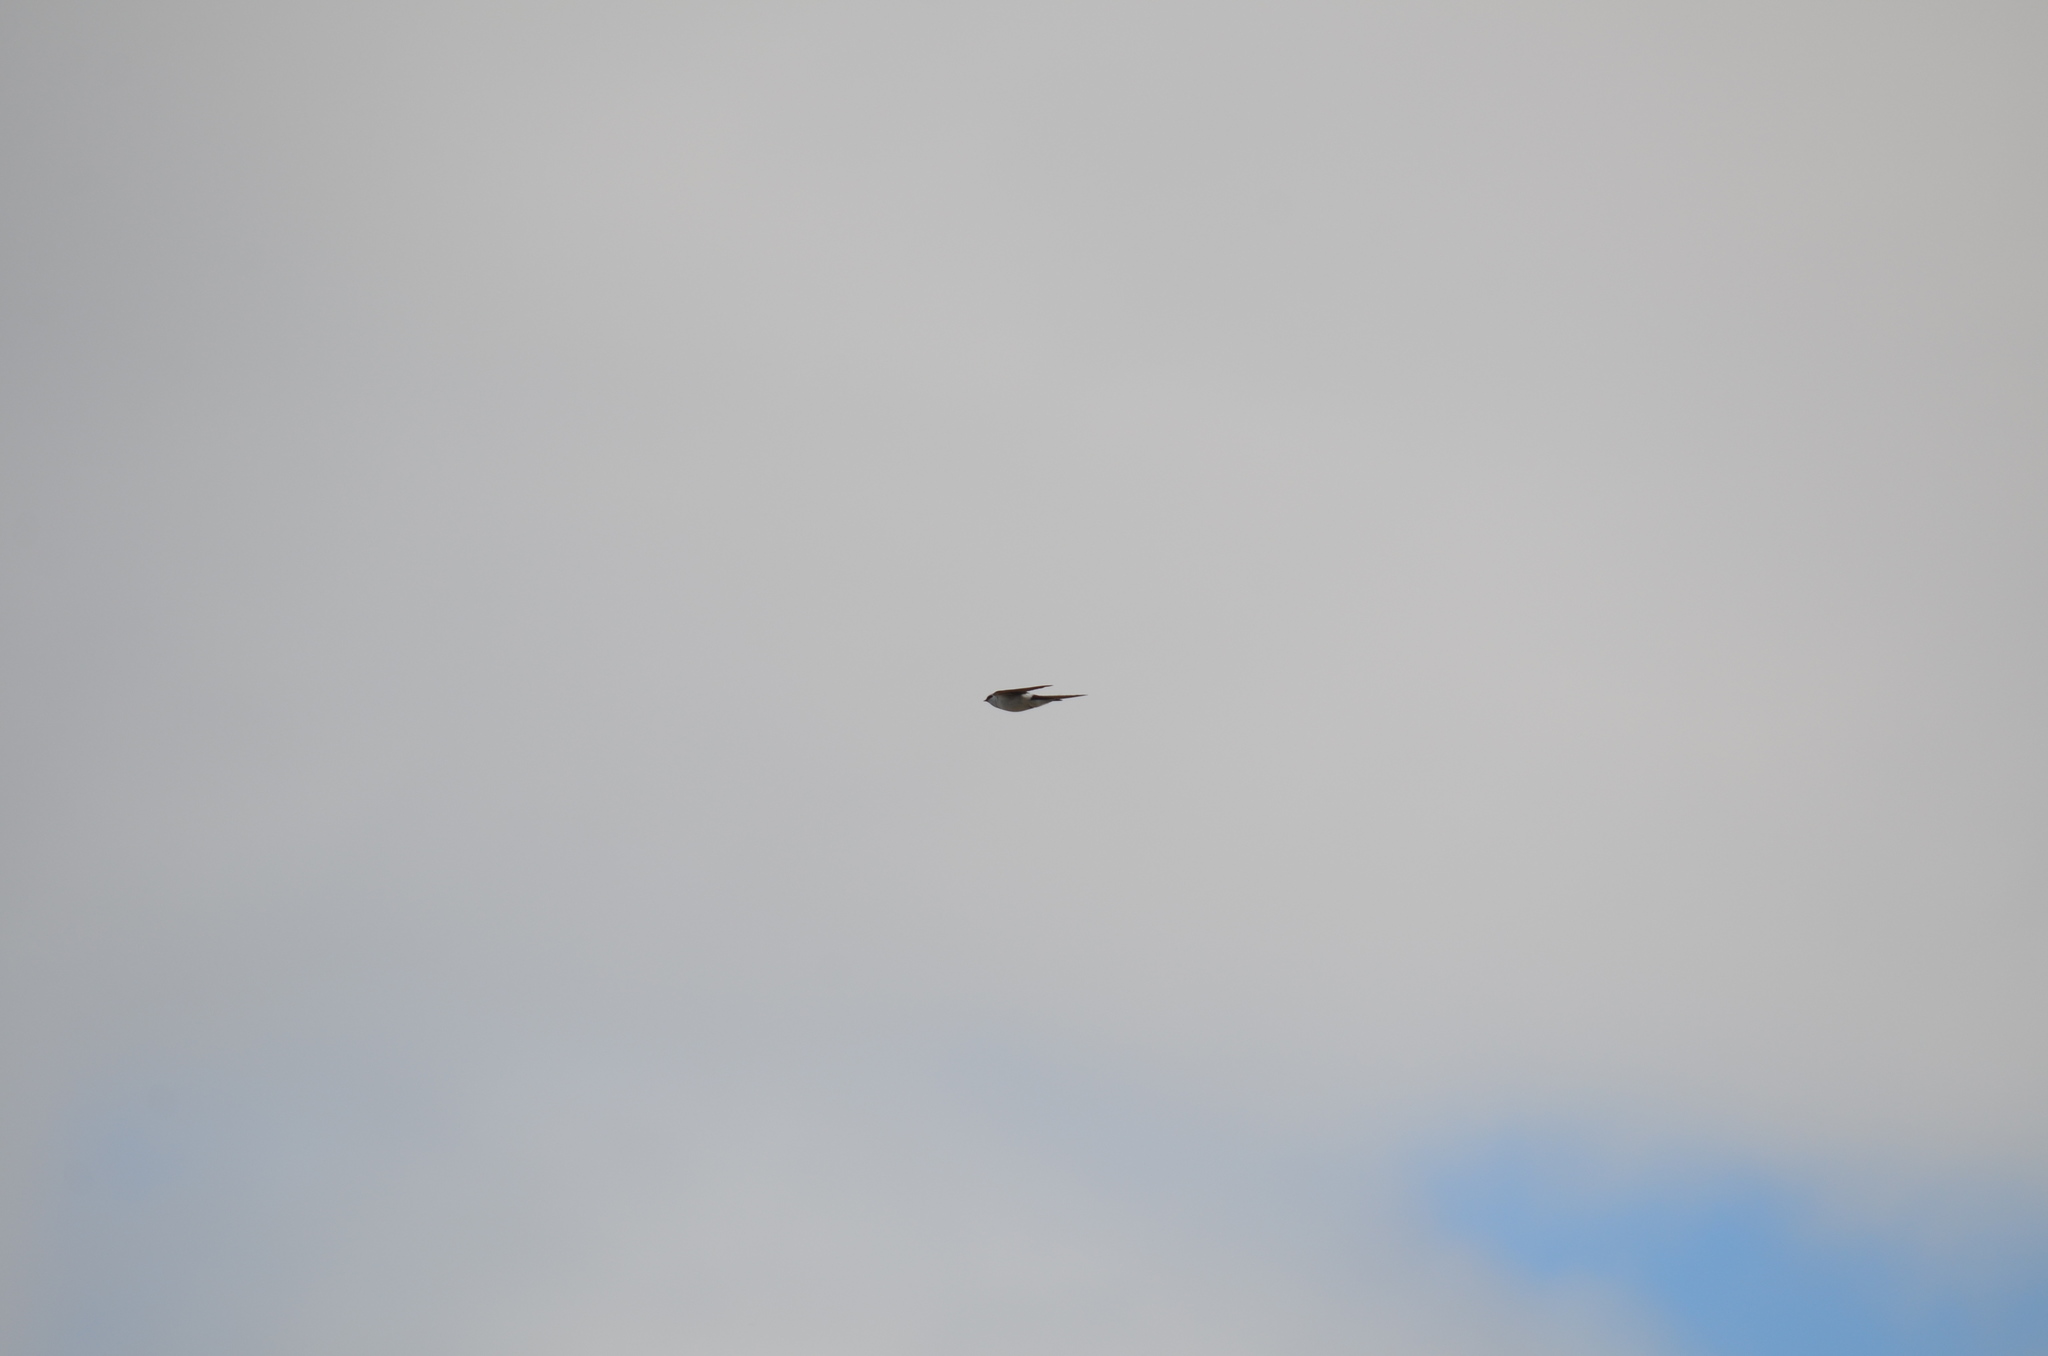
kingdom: Animalia
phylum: Chordata
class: Aves
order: Passeriformes
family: Hirundinidae
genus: Tachycineta
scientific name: Tachycineta thalassina
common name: Violet-green swallow
